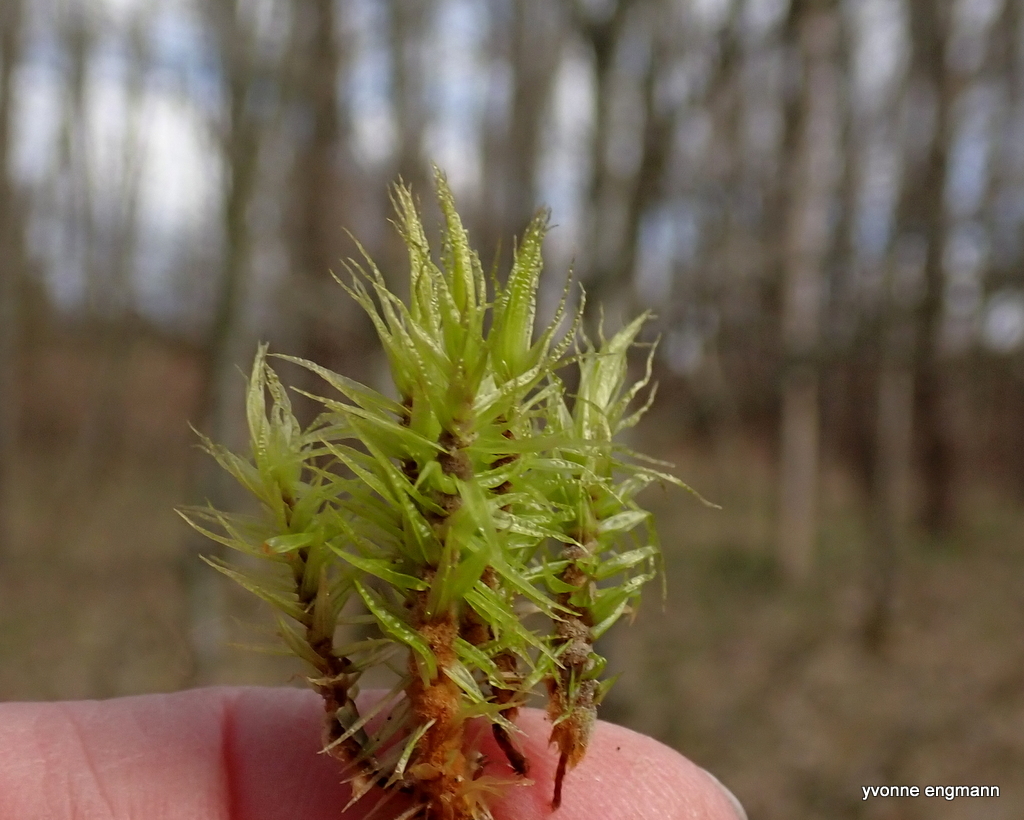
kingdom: Plantae
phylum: Bryophyta
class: Bryopsida
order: Dicranales
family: Dicranaceae
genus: Dicranum
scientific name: Dicranum polysetum
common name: Rugose fork-moss
